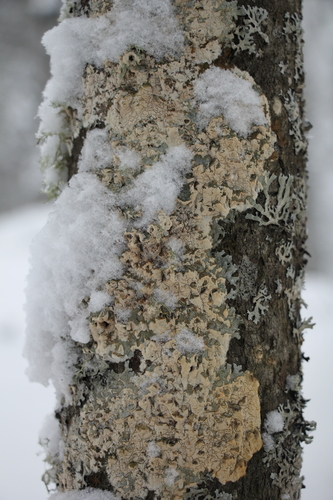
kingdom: Fungi
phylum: Basidiomycota
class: Agaricomycetes
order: Hymenochaetales
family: Schizoporaceae
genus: Xylodon
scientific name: Xylodon flaviporus
